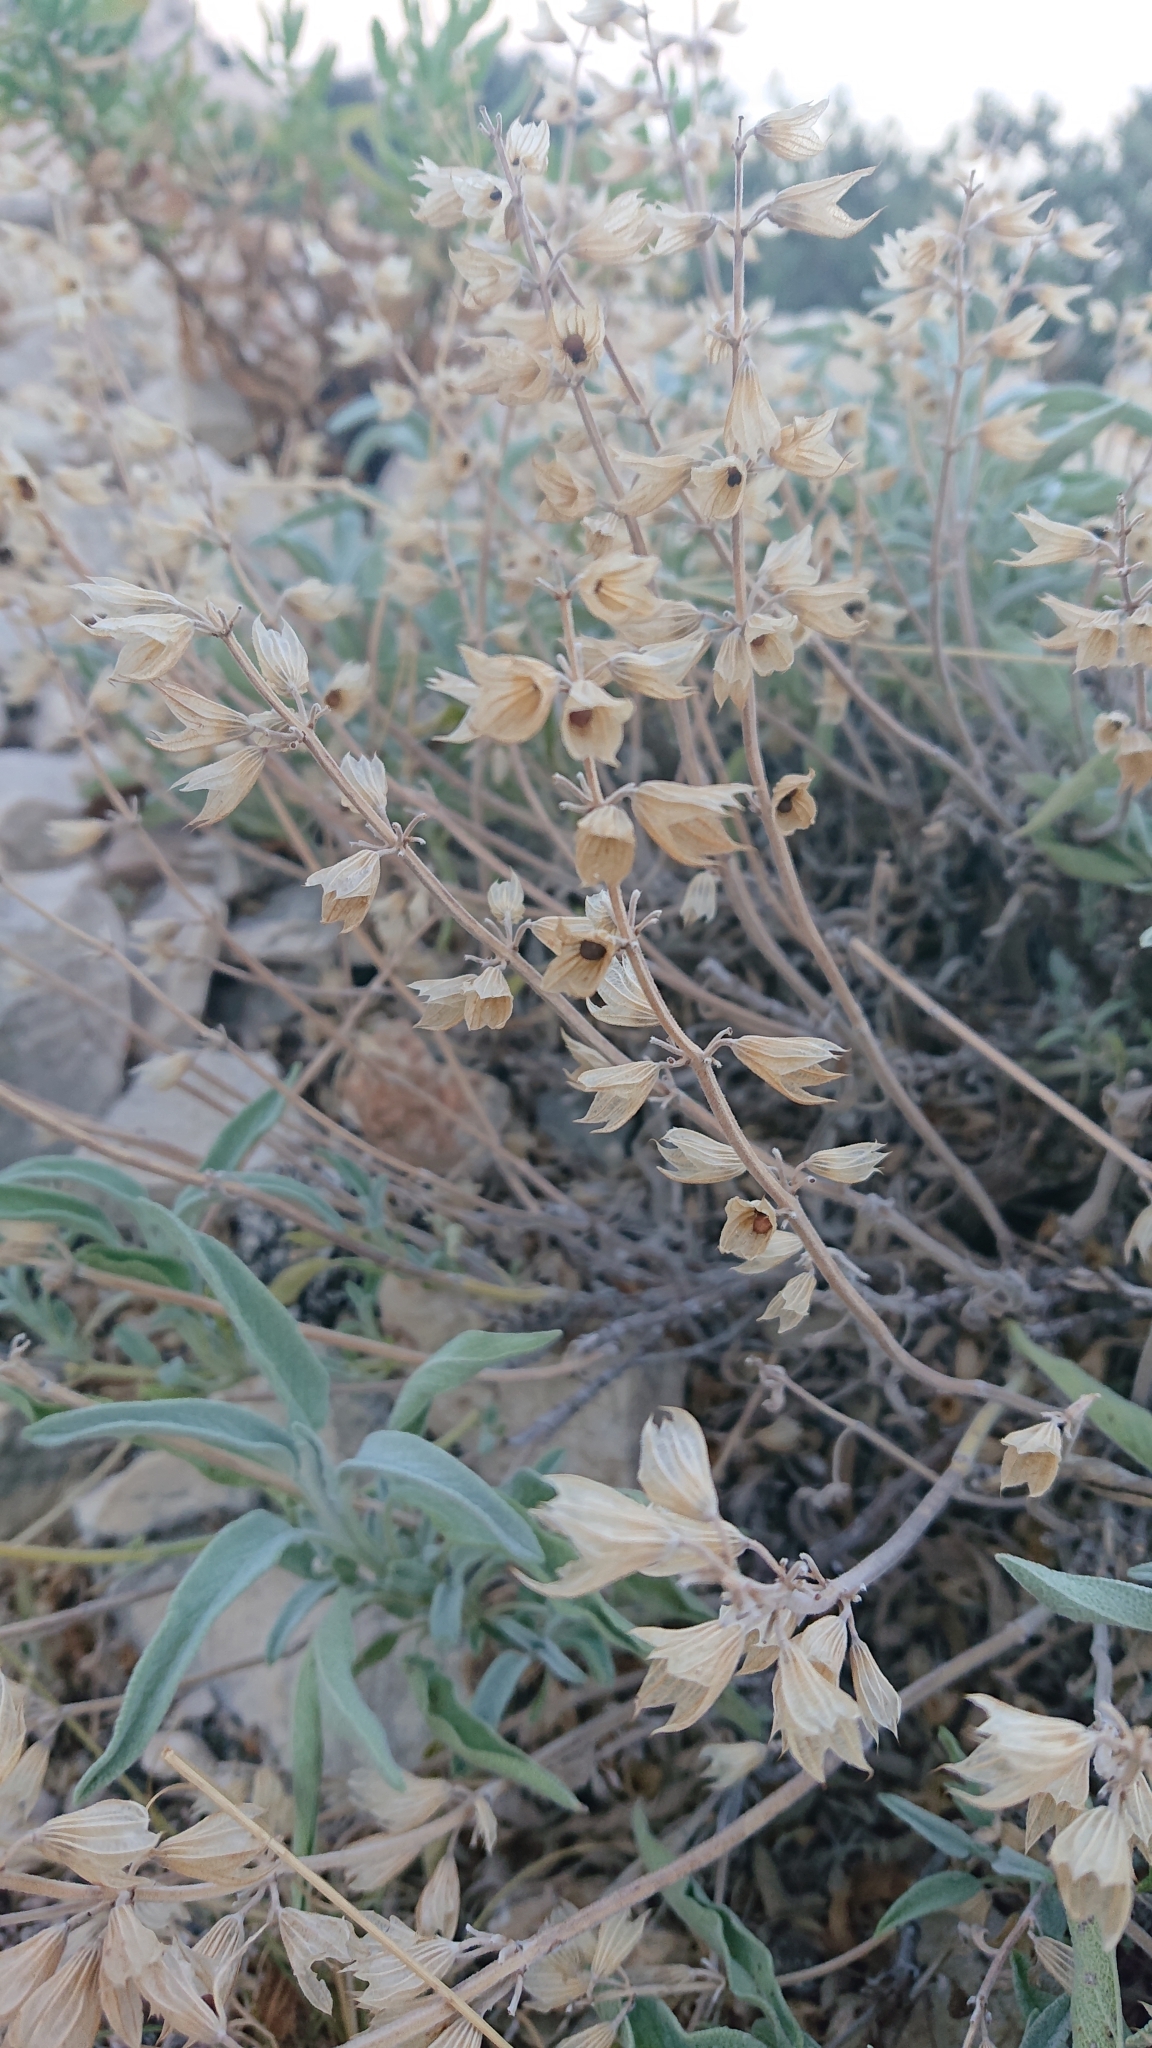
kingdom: Plantae
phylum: Tracheophyta
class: Magnoliopsida
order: Lamiales
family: Lamiaceae
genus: Salvia
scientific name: Salvia officinalis
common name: Sage
